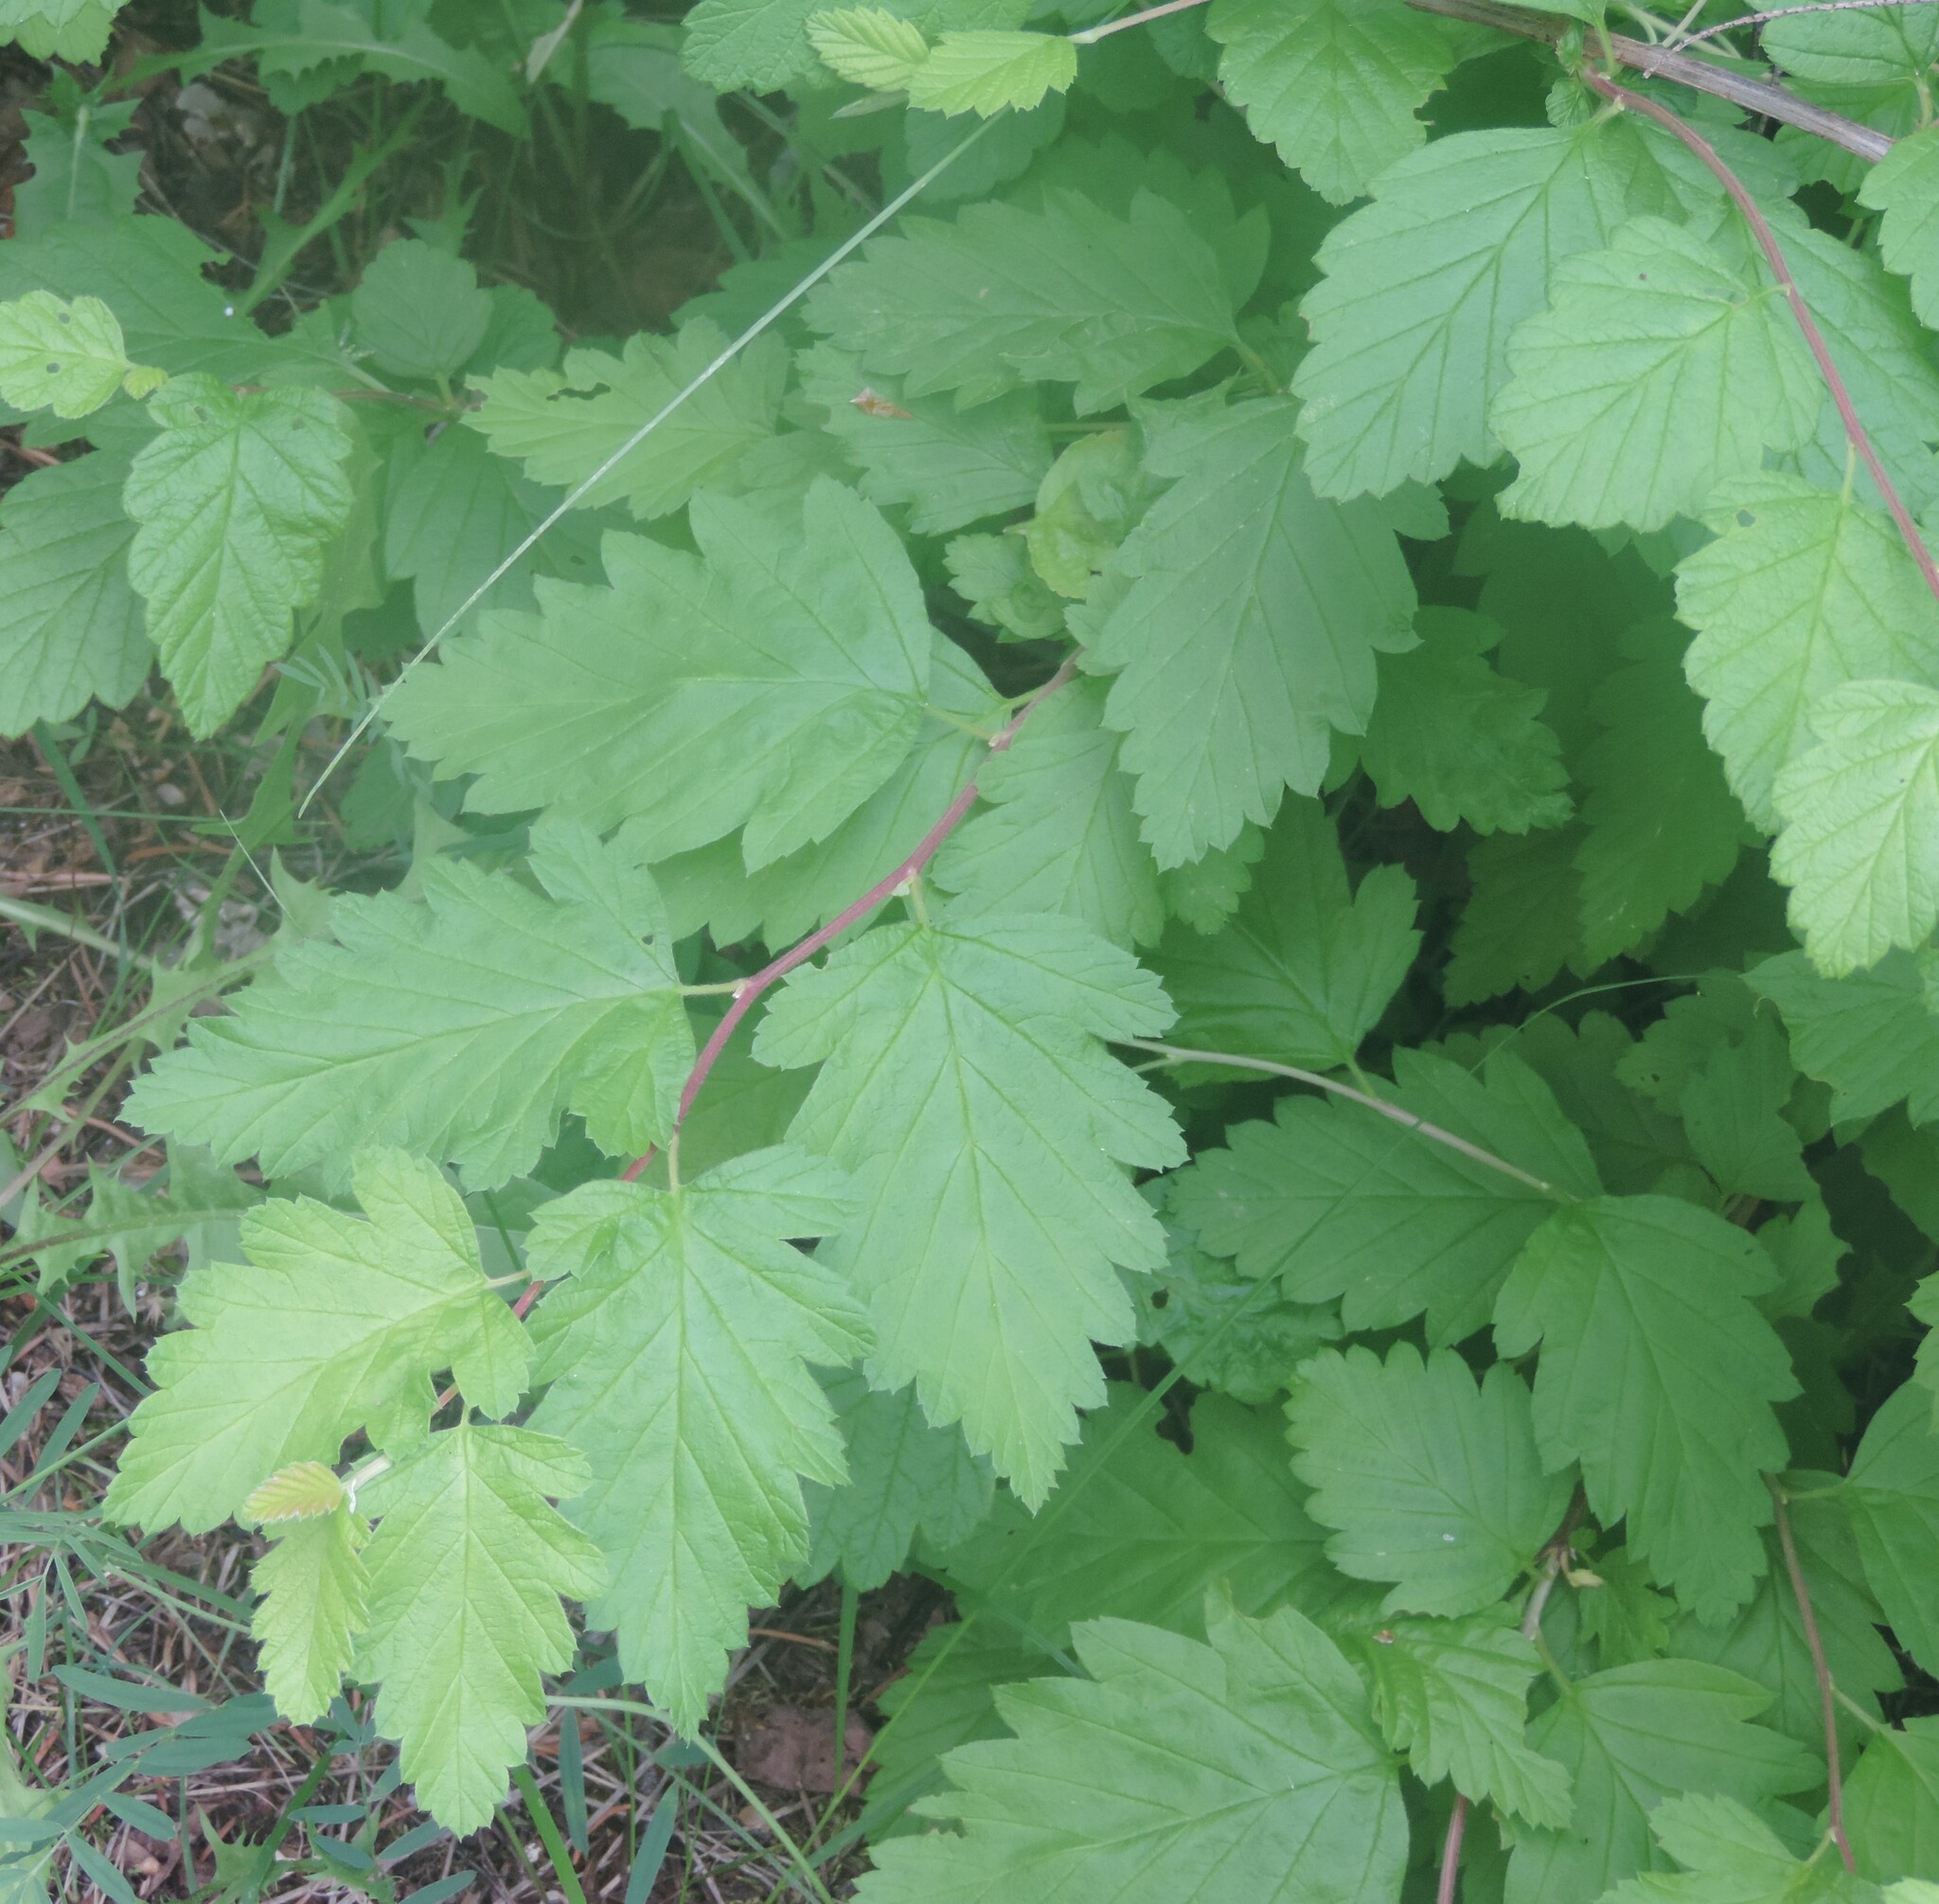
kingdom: Plantae
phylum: Tracheophyta
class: Magnoliopsida
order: Rosales
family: Rosaceae
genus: Holodiscus
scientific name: Holodiscus discolor
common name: Oceanspray
